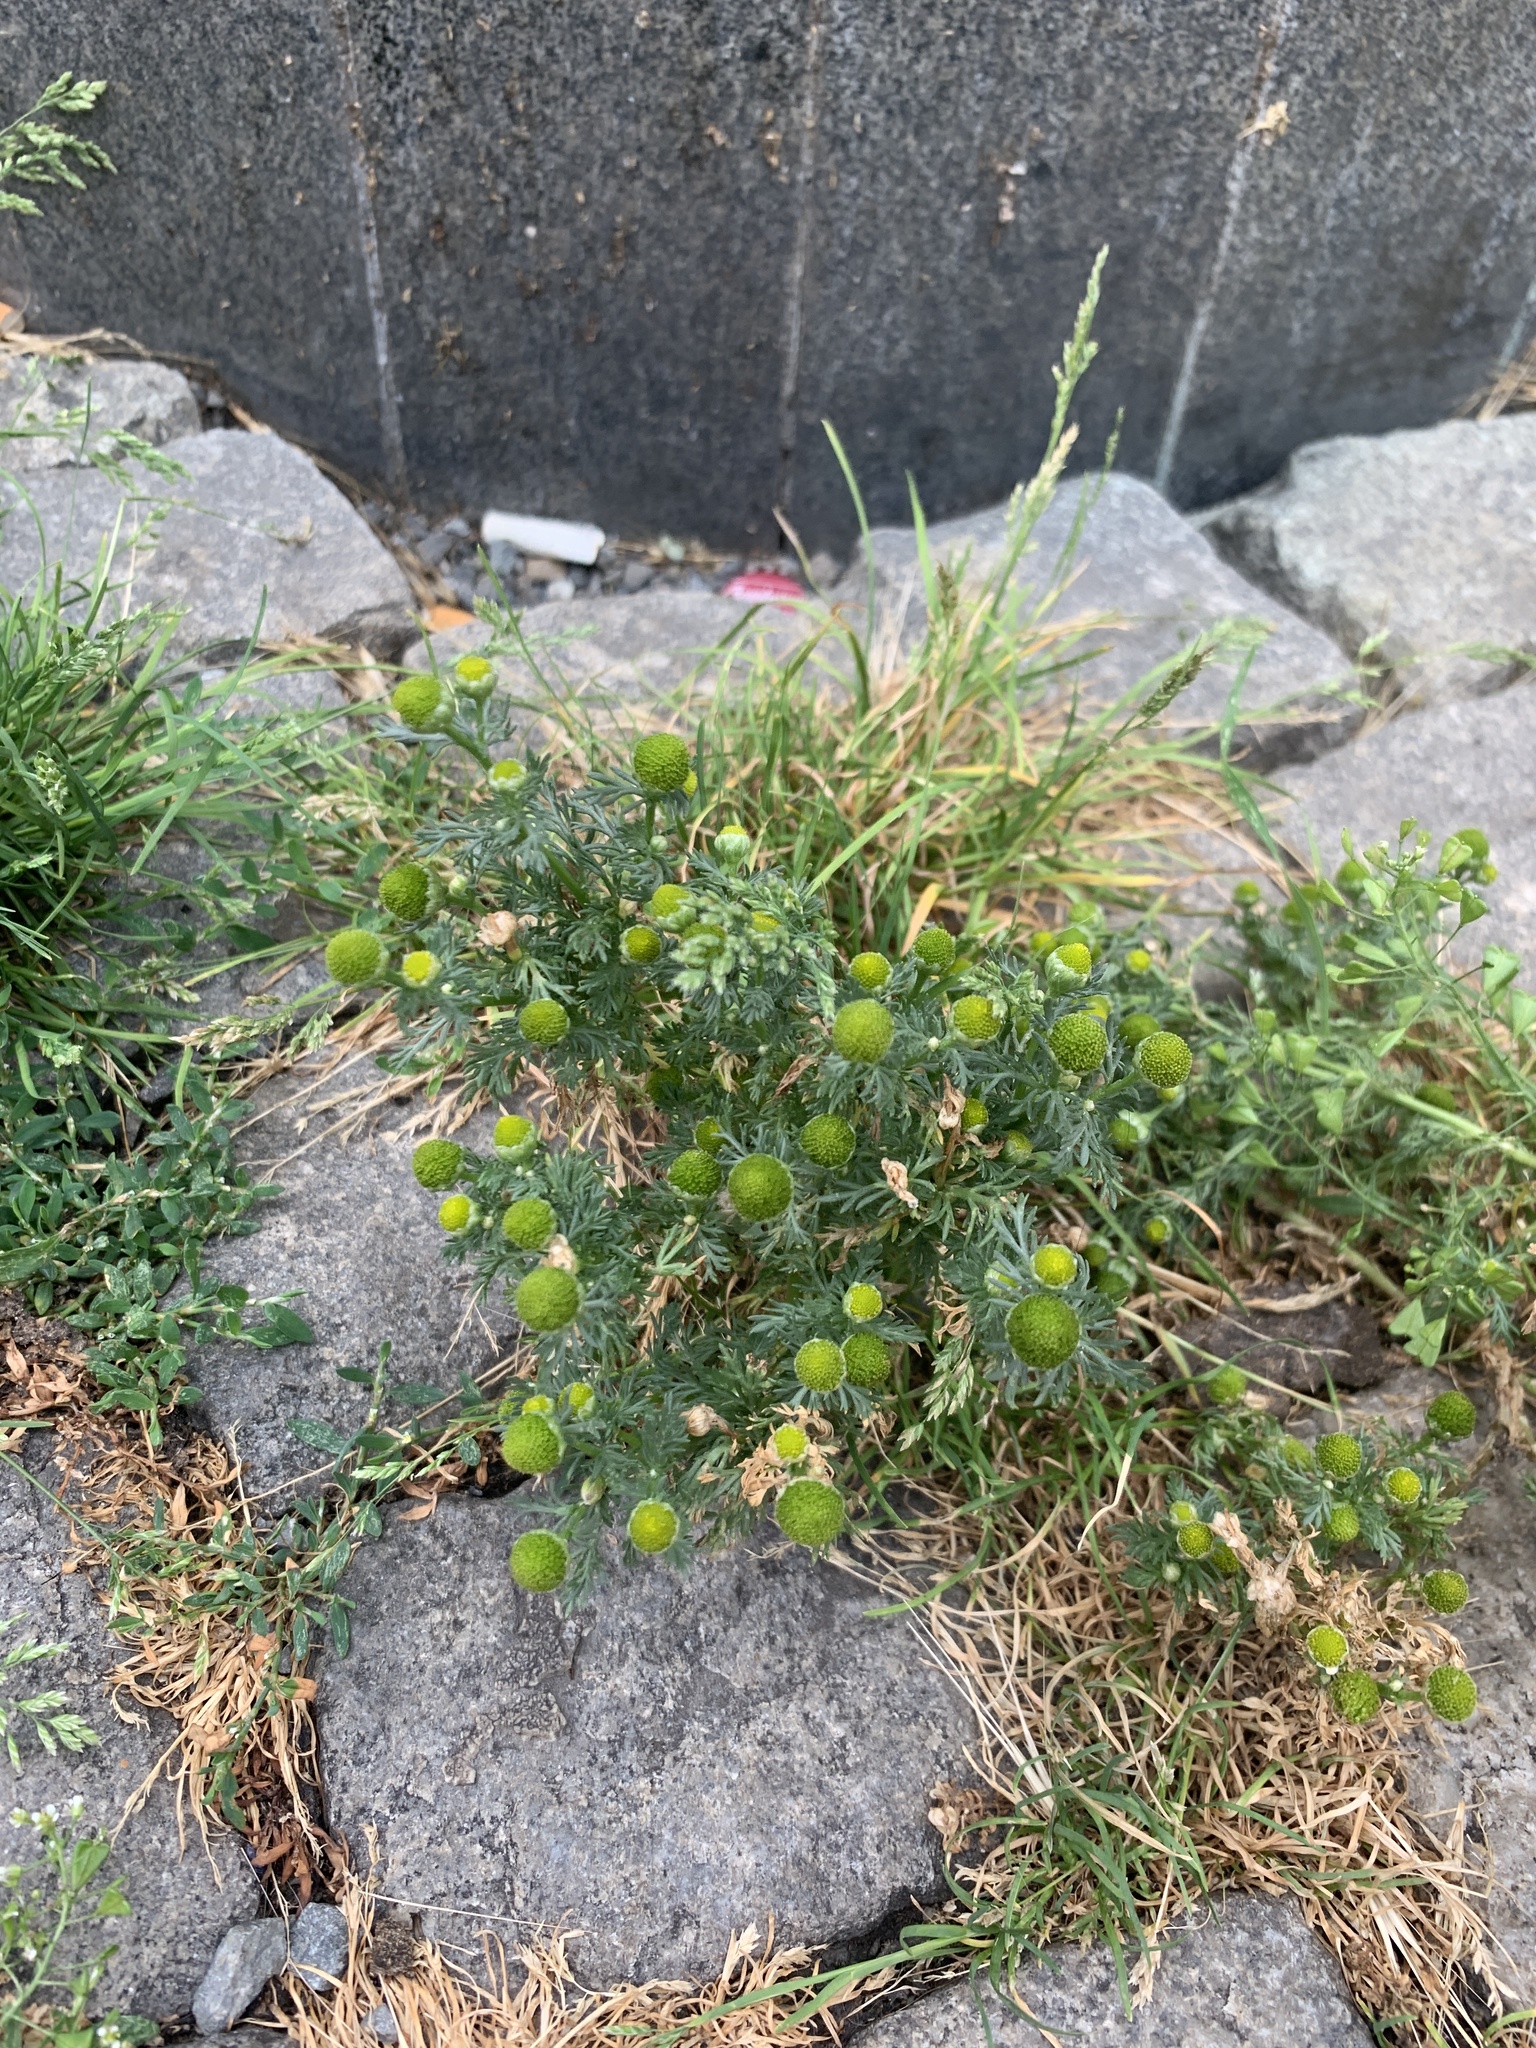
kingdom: Plantae
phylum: Tracheophyta
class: Magnoliopsida
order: Asterales
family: Asteraceae
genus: Matricaria
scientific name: Matricaria discoidea
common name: Disc mayweed
